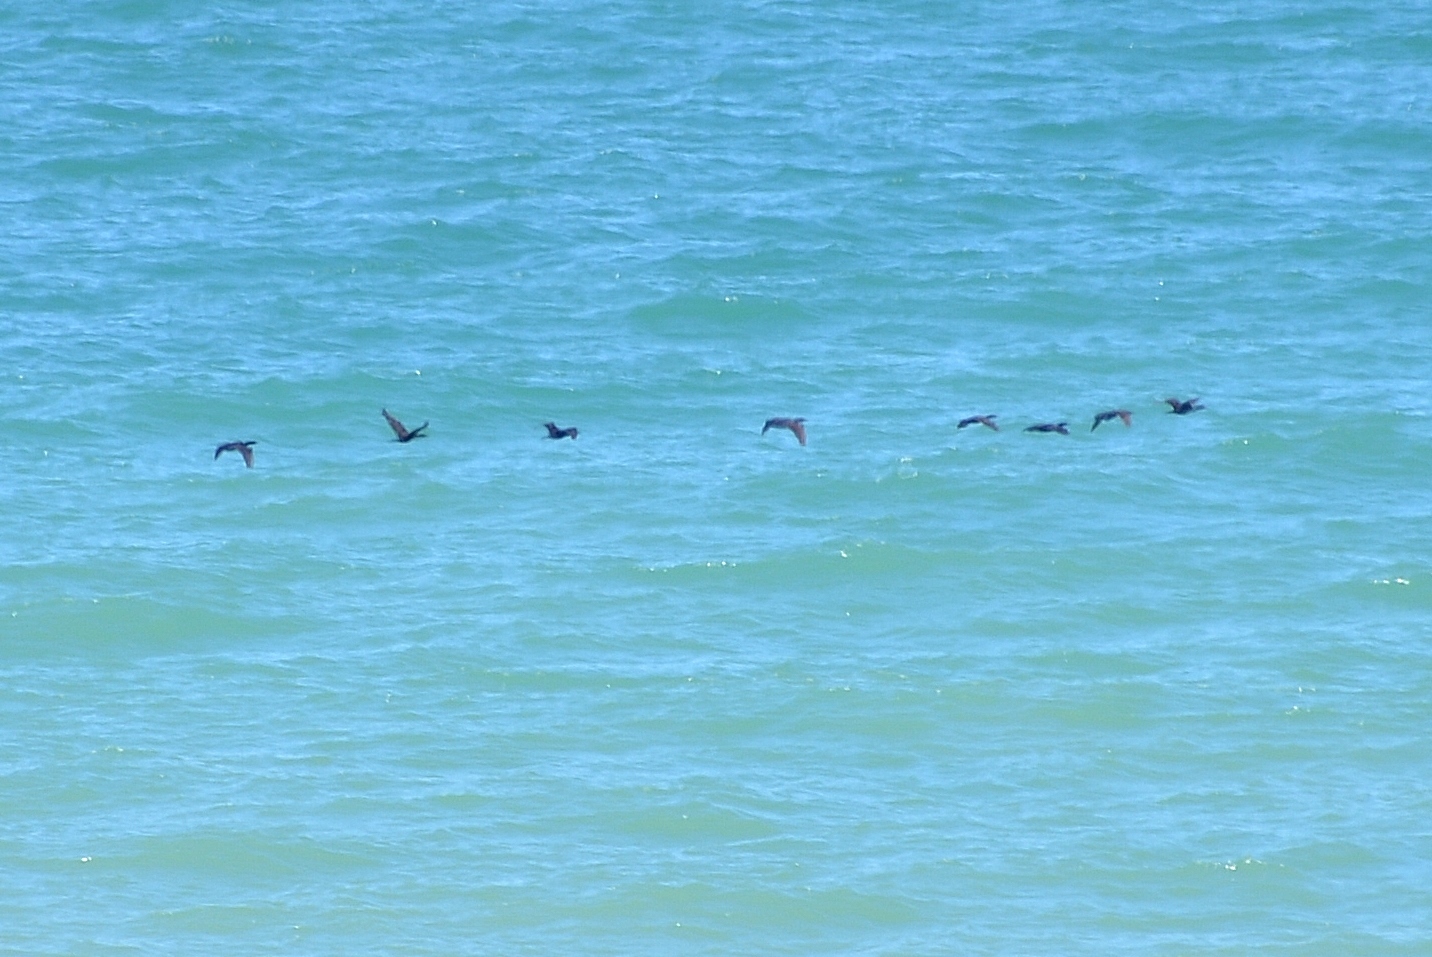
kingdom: Animalia
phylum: Chordata
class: Aves
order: Suliformes
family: Phalacrocoracidae
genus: Phalacrocorax
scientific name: Phalacrocorax auritus
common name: Double-crested cormorant
